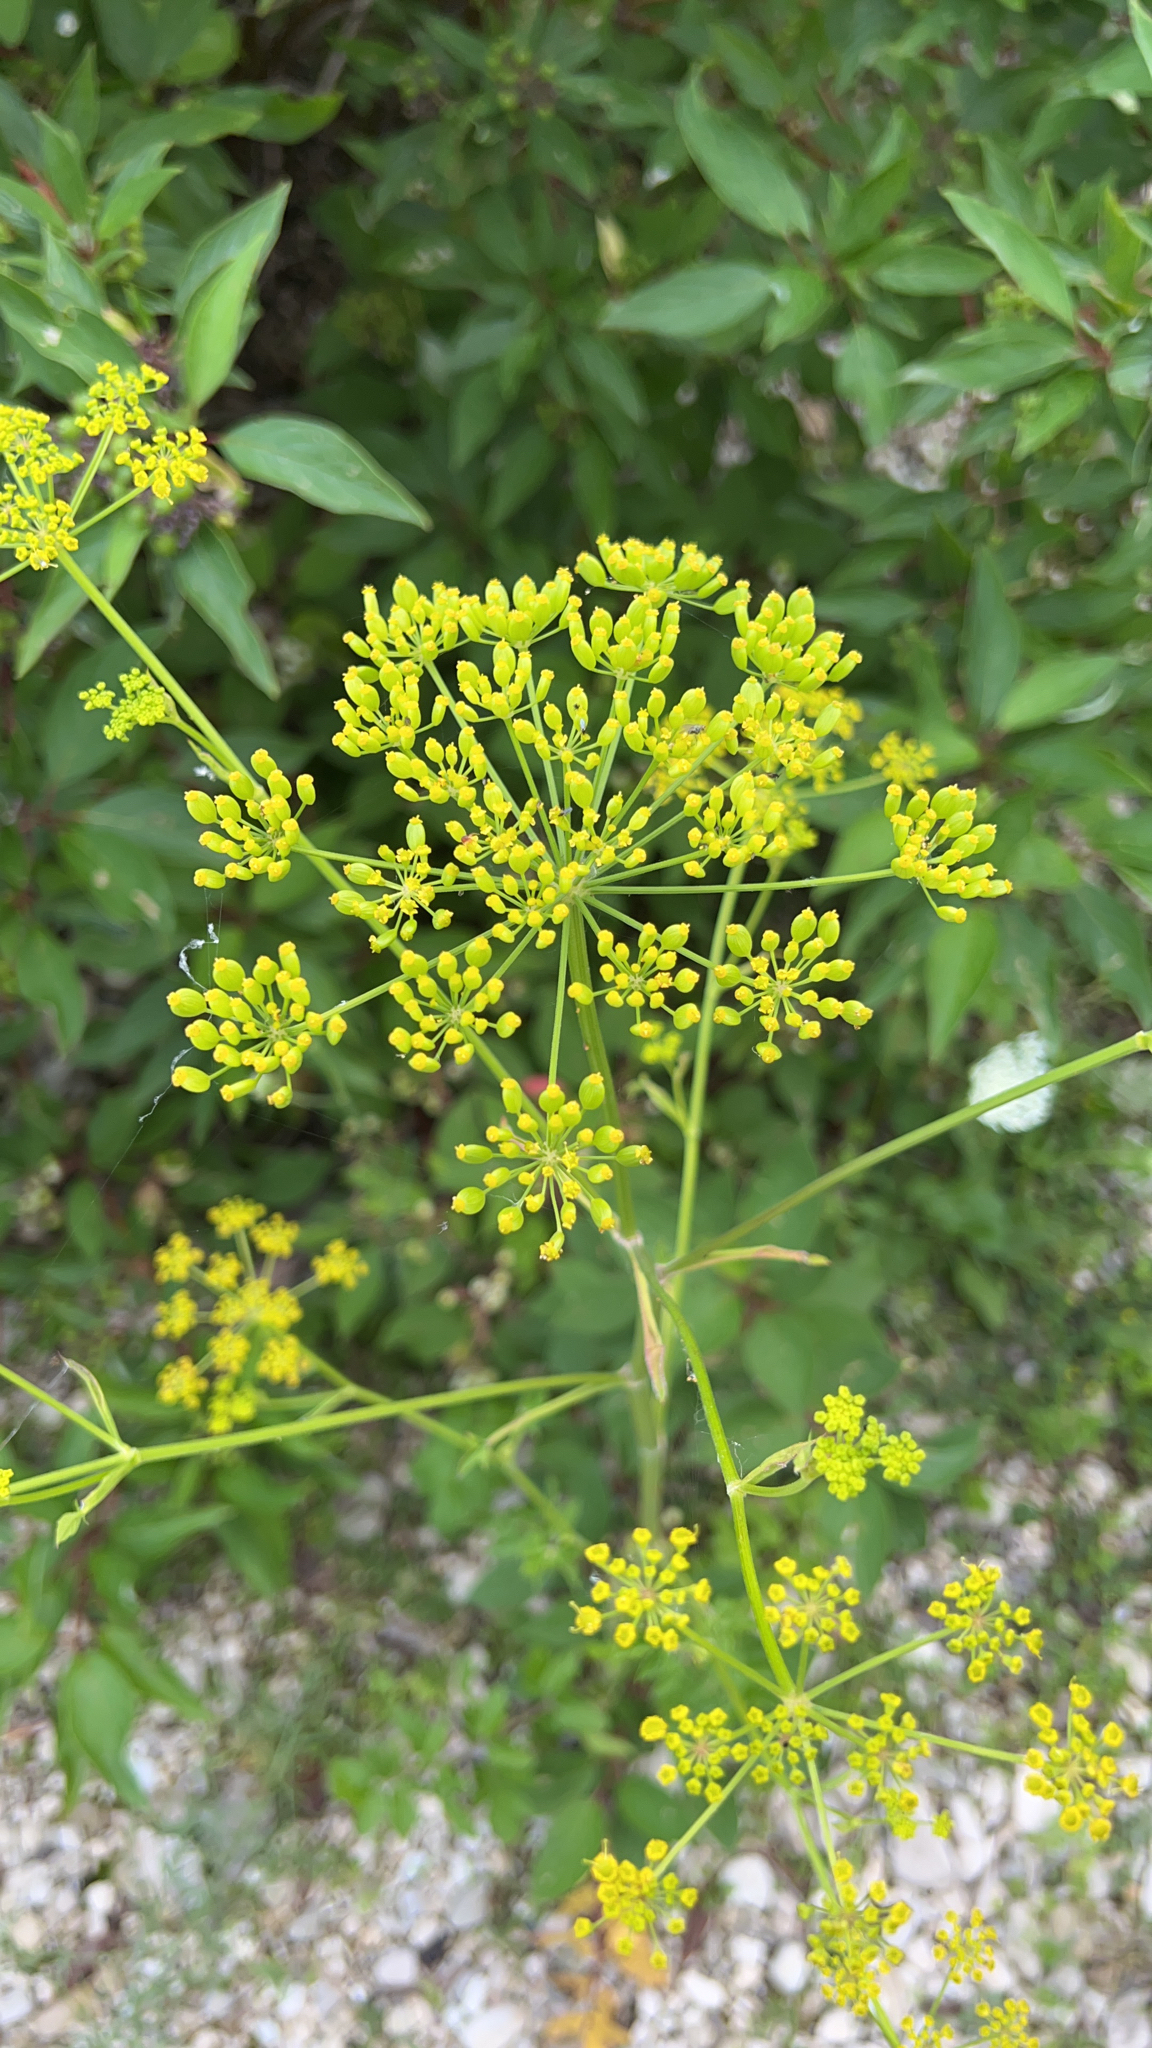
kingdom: Plantae
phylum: Tracheophyta
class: Magnoliopsida
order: Apiales
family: Apiaceae
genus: Pastinaca
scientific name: Pastinaca sativa
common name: Wild parsnip
